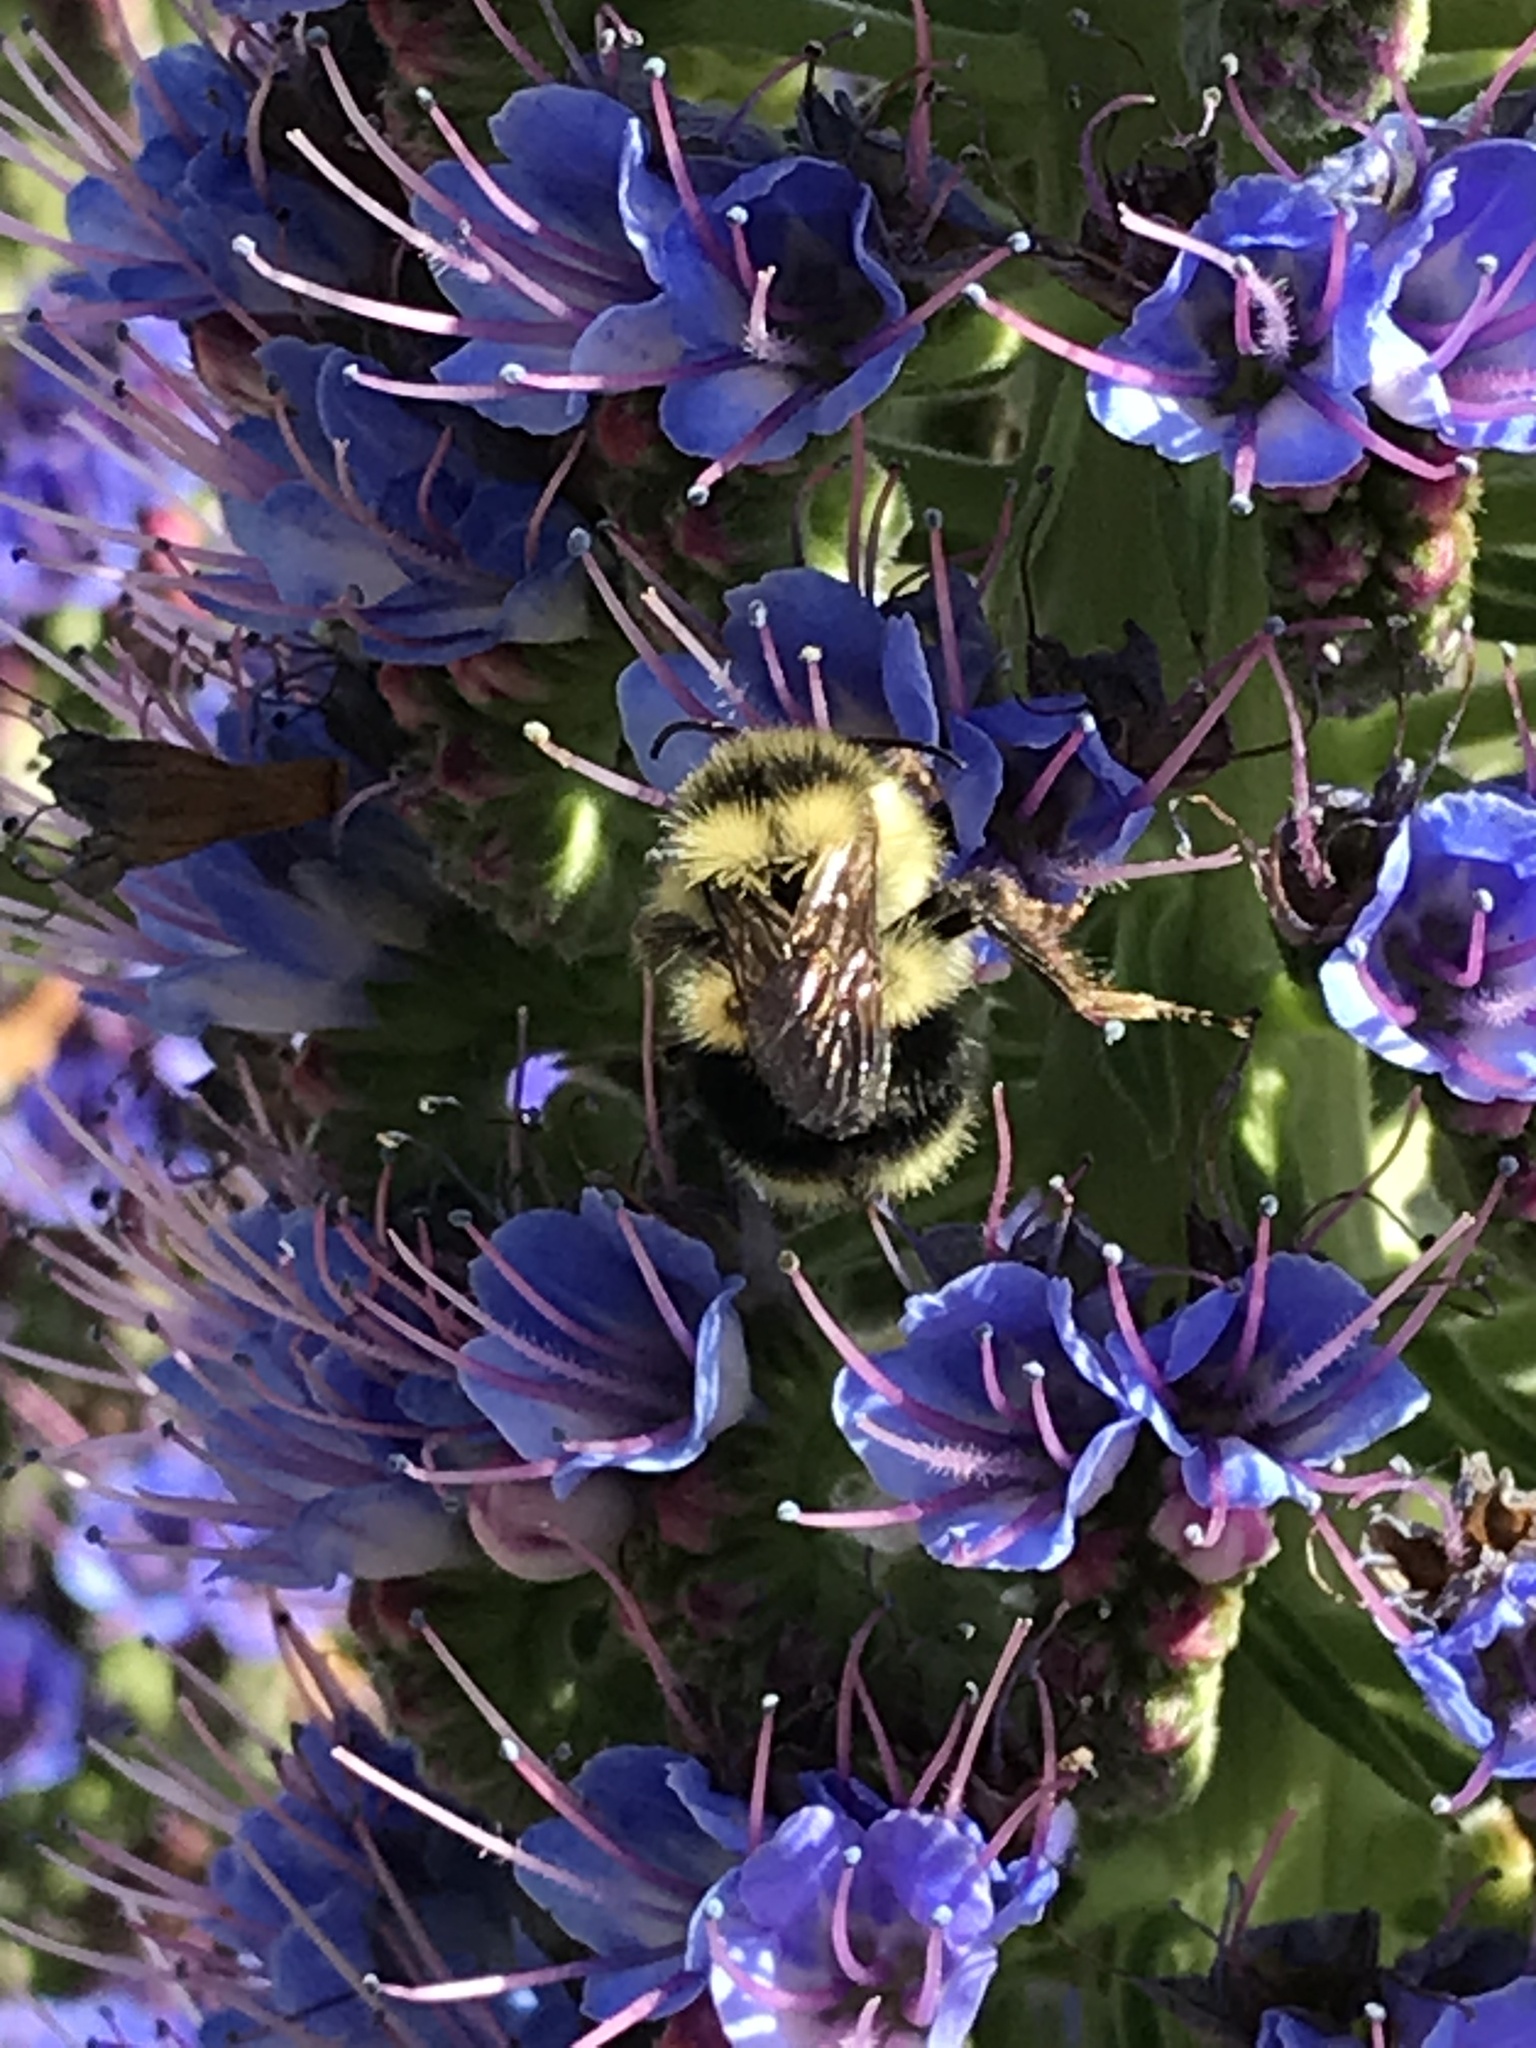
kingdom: Animalia
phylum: Arthropoda
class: Insecta
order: Hymenoptera
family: Apidae
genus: Bombus
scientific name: Bombus melanopygus
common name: Black tail bumble bee
